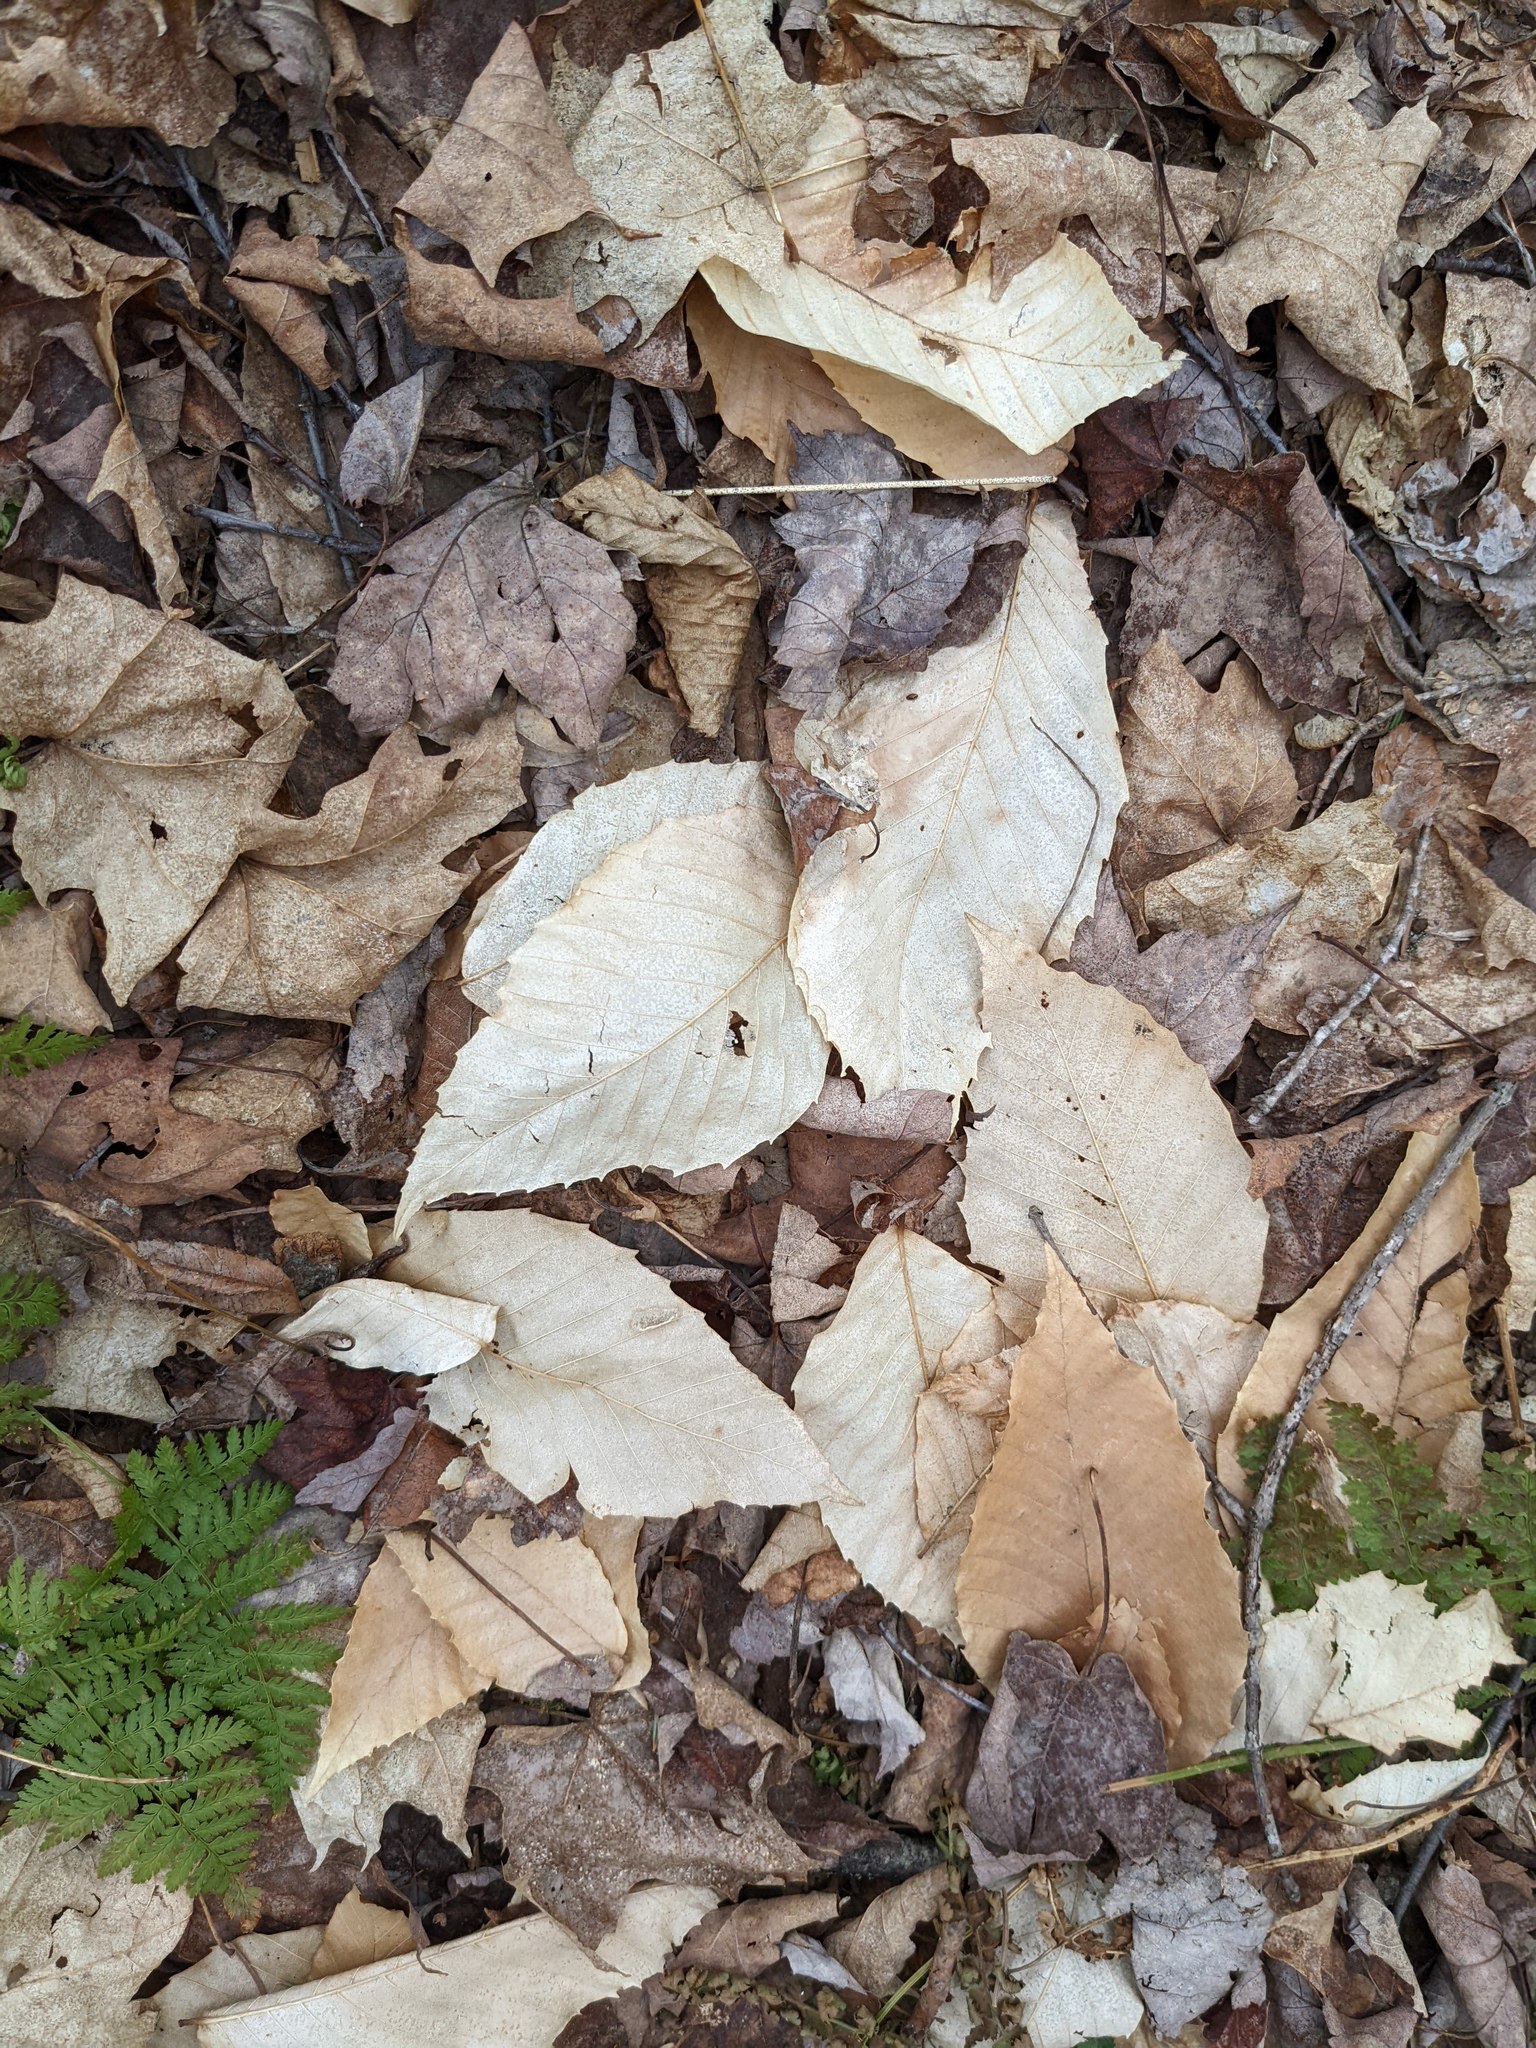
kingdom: Plantae
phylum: Tracheophyta
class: Magnoliopsida
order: Fagales
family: Fagaceae
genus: Fagus
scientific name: Fagus grandifolia
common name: American beech
